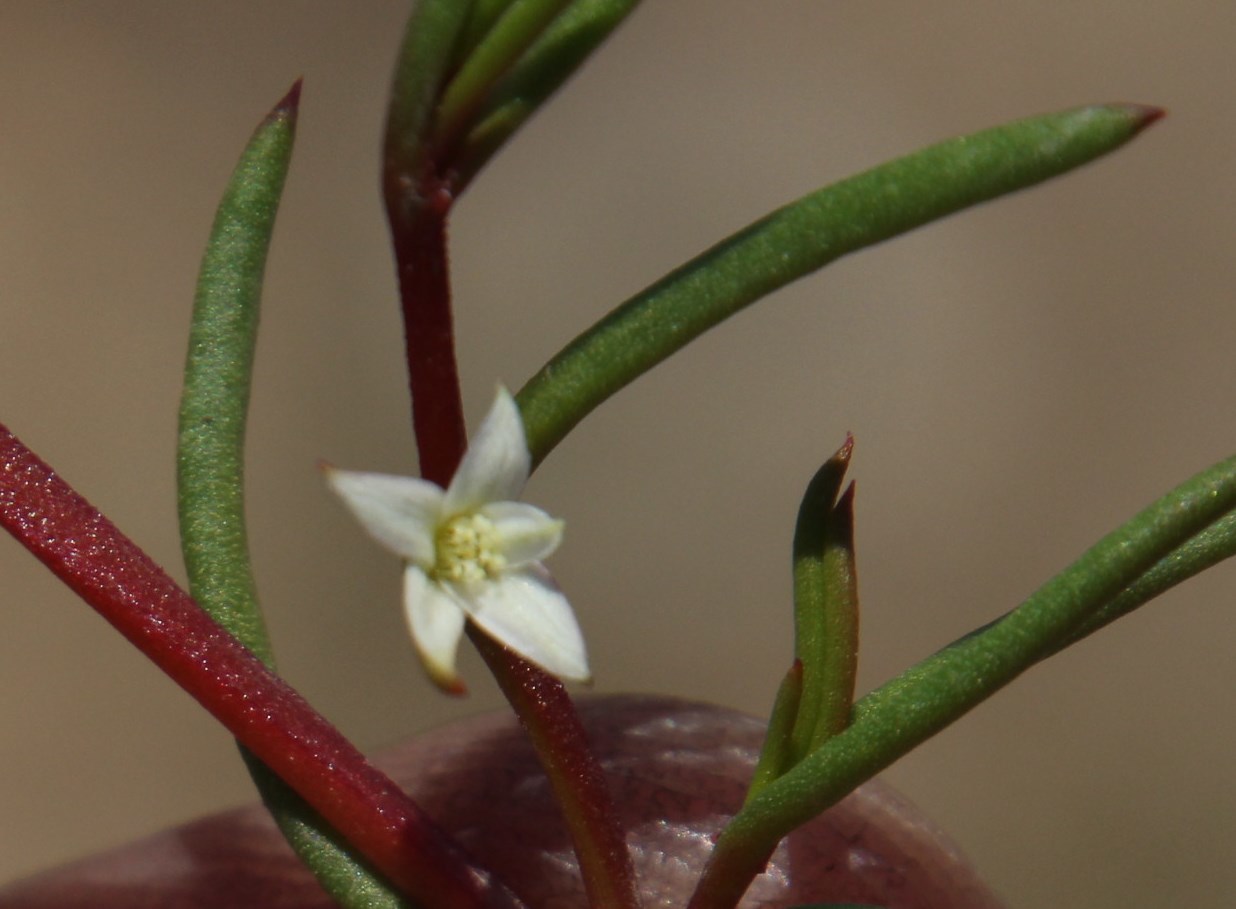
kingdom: Plantae
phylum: Tracheophyta
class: Magnoliopsida
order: Caryophyllales
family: Aizoaceae
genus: Acrosanthes
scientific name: Acrosanthes teretifolia
